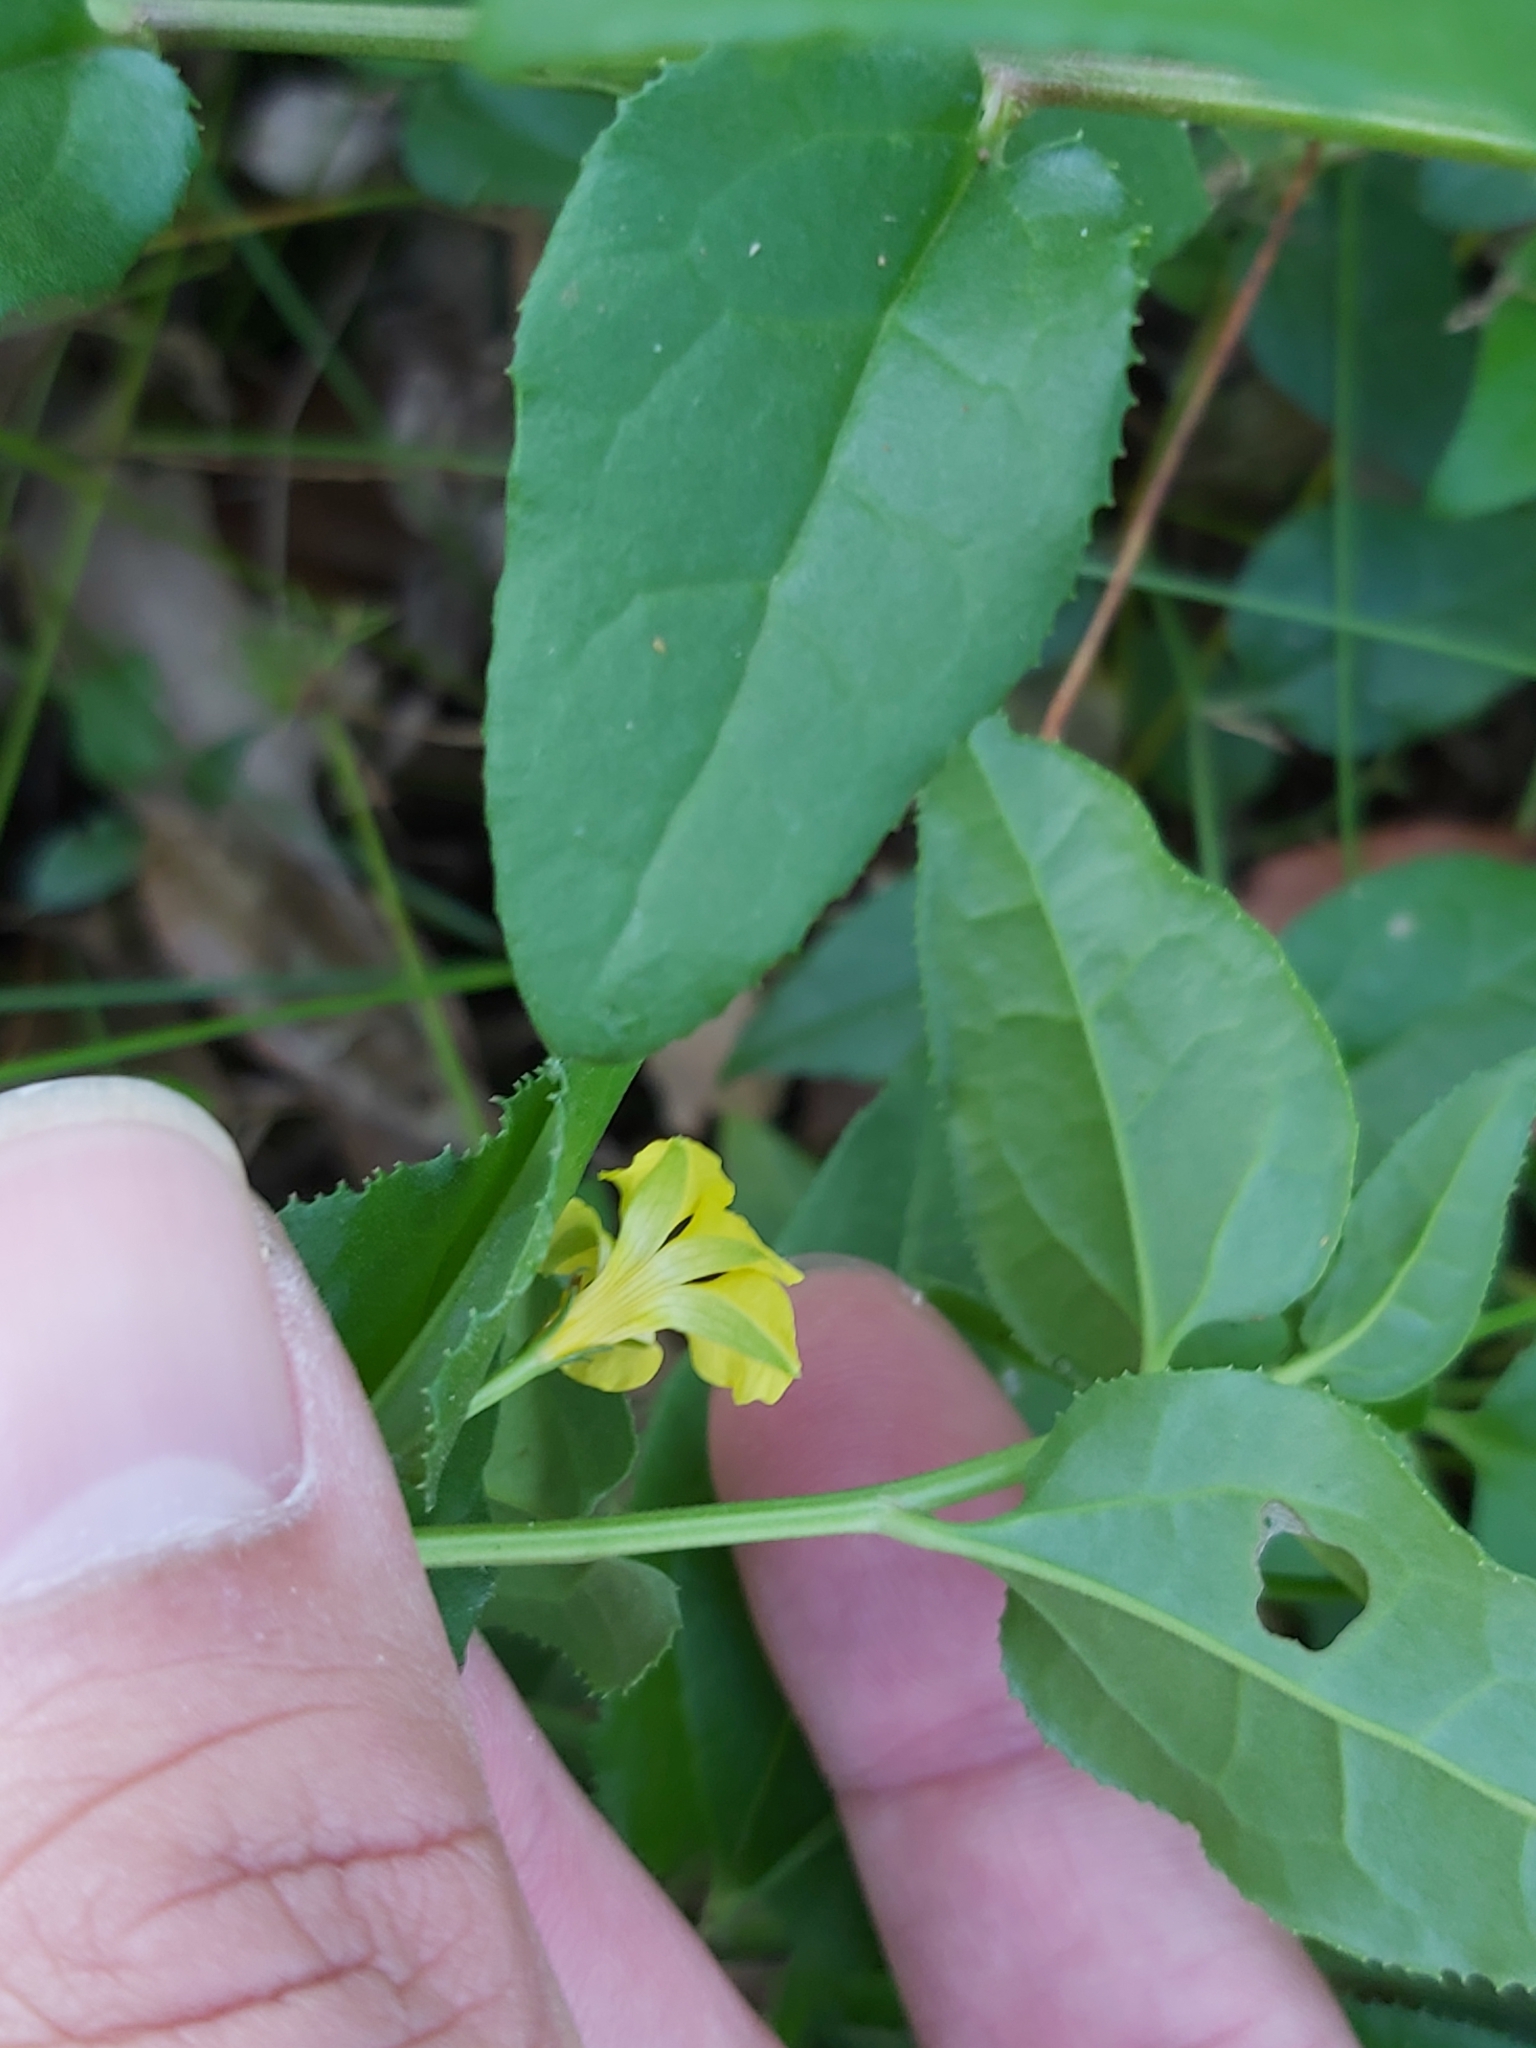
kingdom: Plantae
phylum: Tracheophyta
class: Magnoliopsida
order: Asterales
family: Goodeniaceae
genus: Goodenia
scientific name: Goodenia ovata
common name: Hop goodenia
